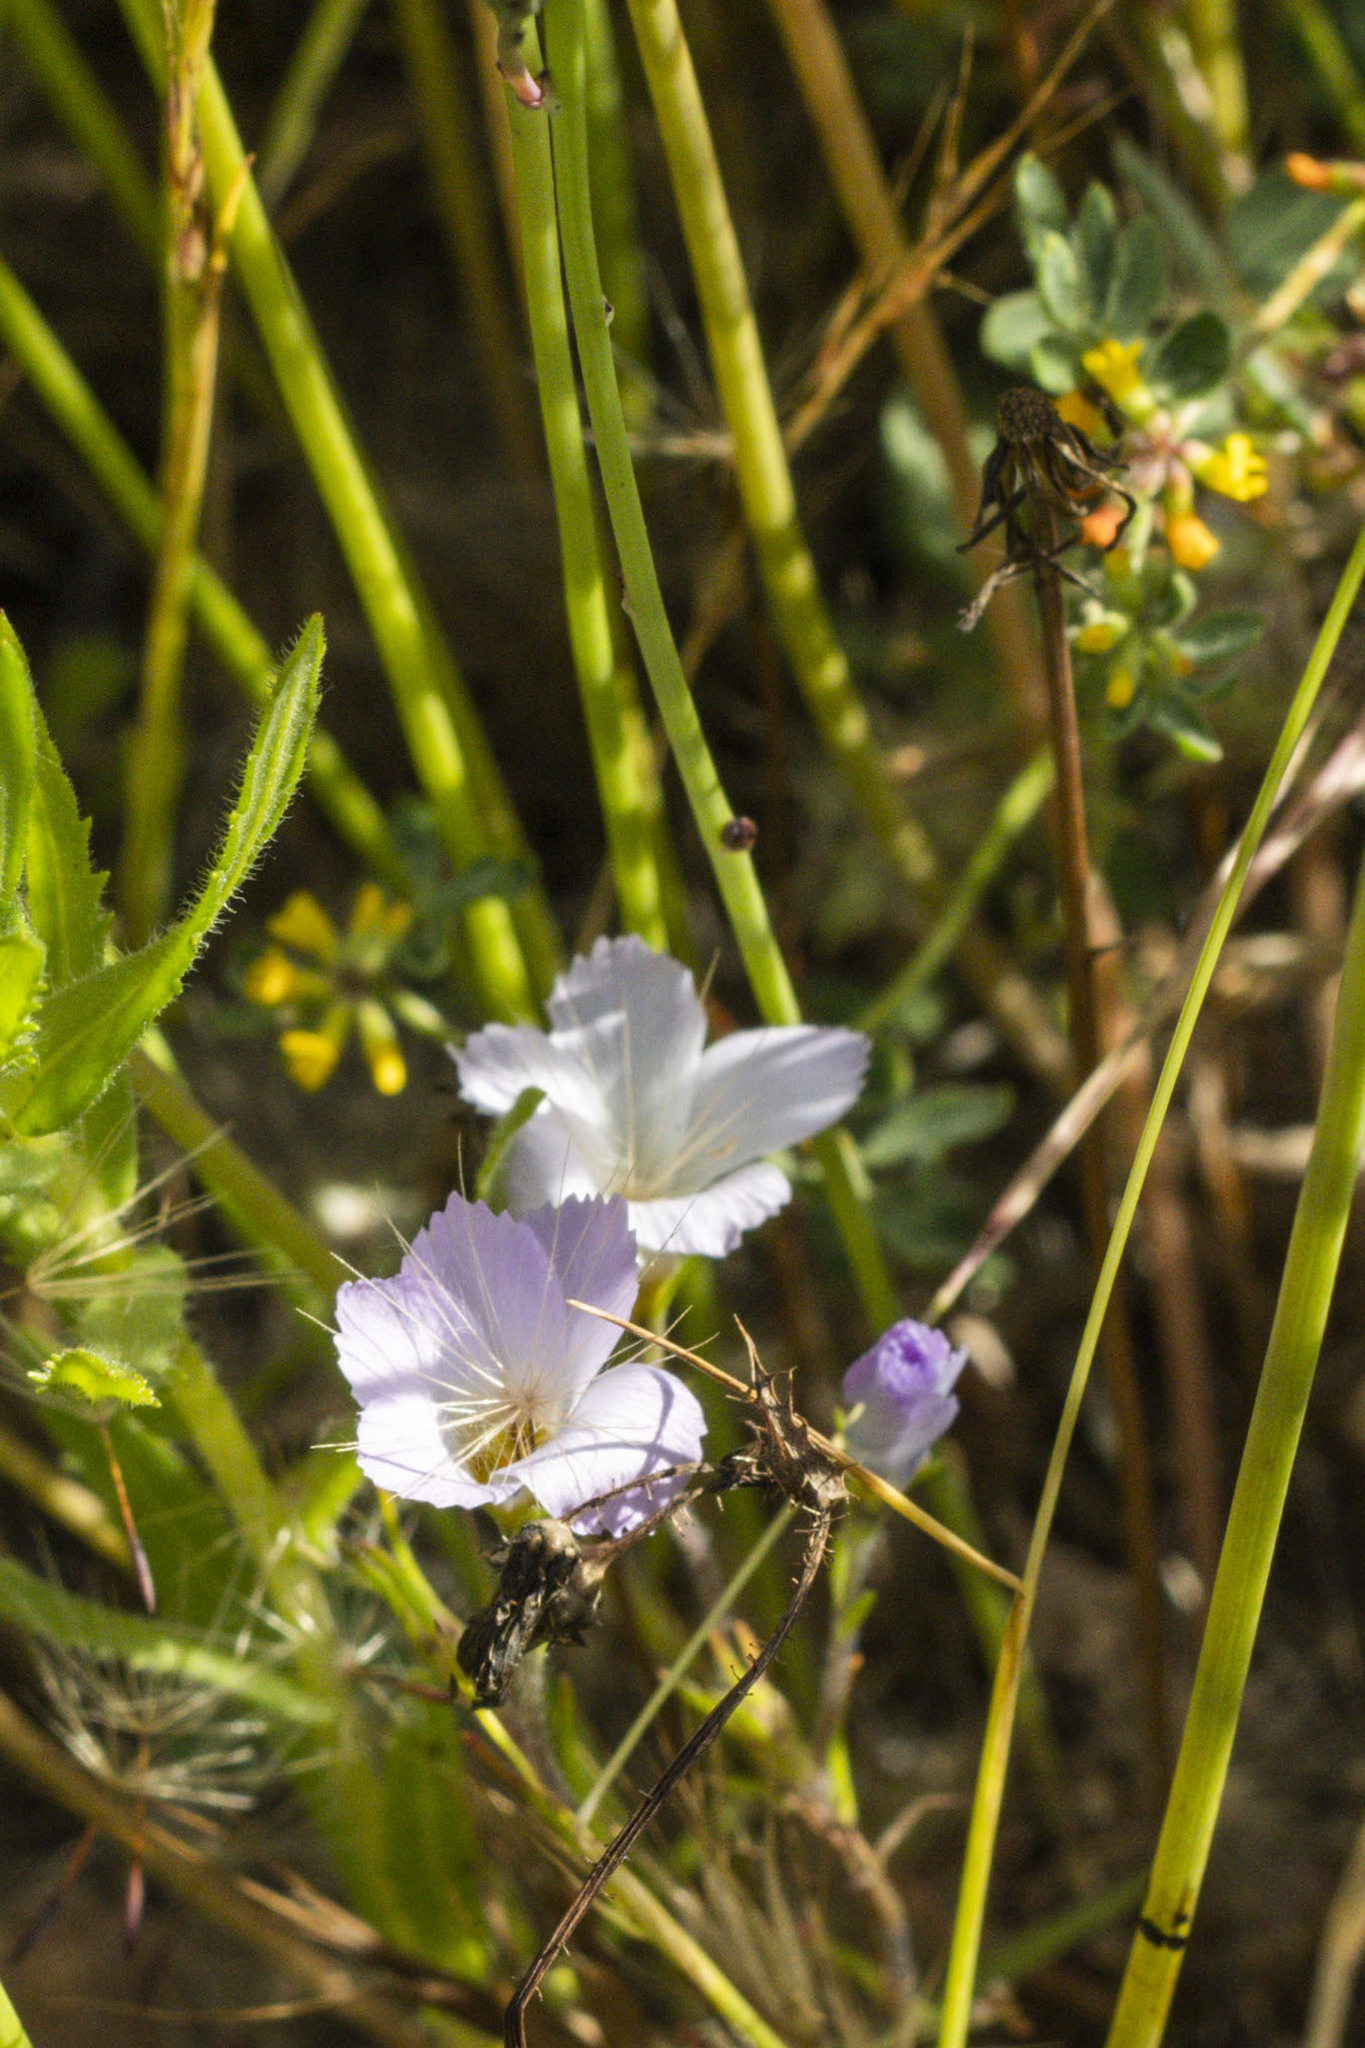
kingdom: Plantae
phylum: Tracheophyta
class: Magnoliopsida
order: Ericales
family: Polemoniaceae
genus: Linanthus
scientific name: Linanthus dianthiflorus
